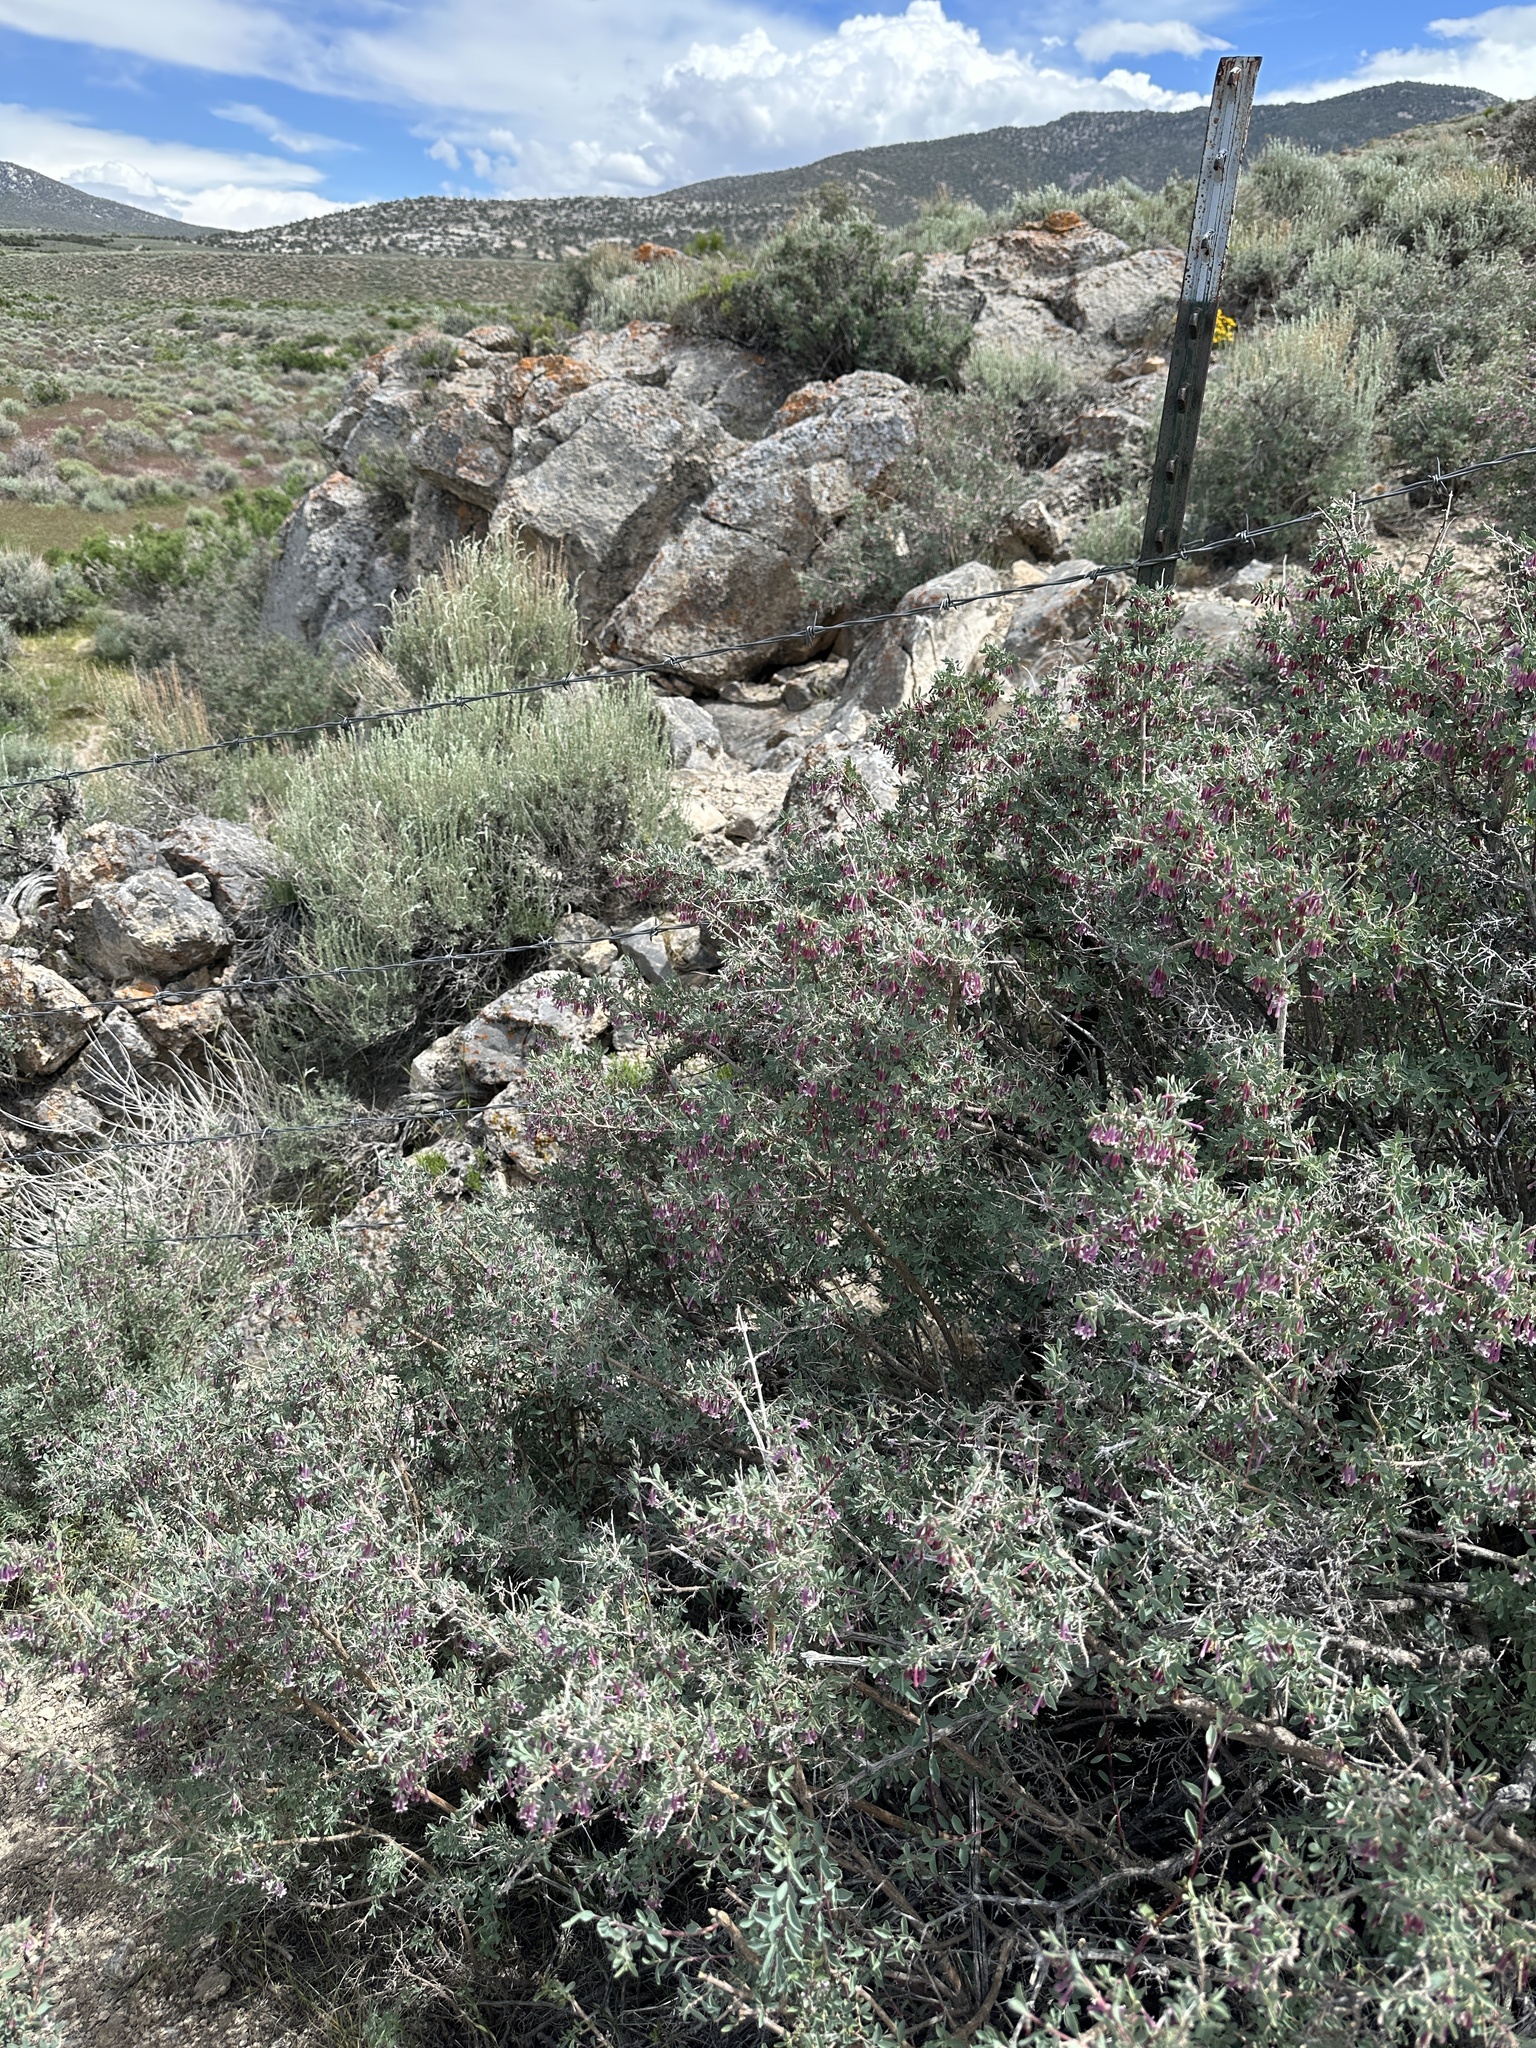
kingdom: Plantae
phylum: Tracheophyta
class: Magnoliopsida
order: Dipsacales
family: Caprifoliaceae
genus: Symphoricarpos
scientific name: Symphoricarpos longiflorus
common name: Fragrant snowberry
